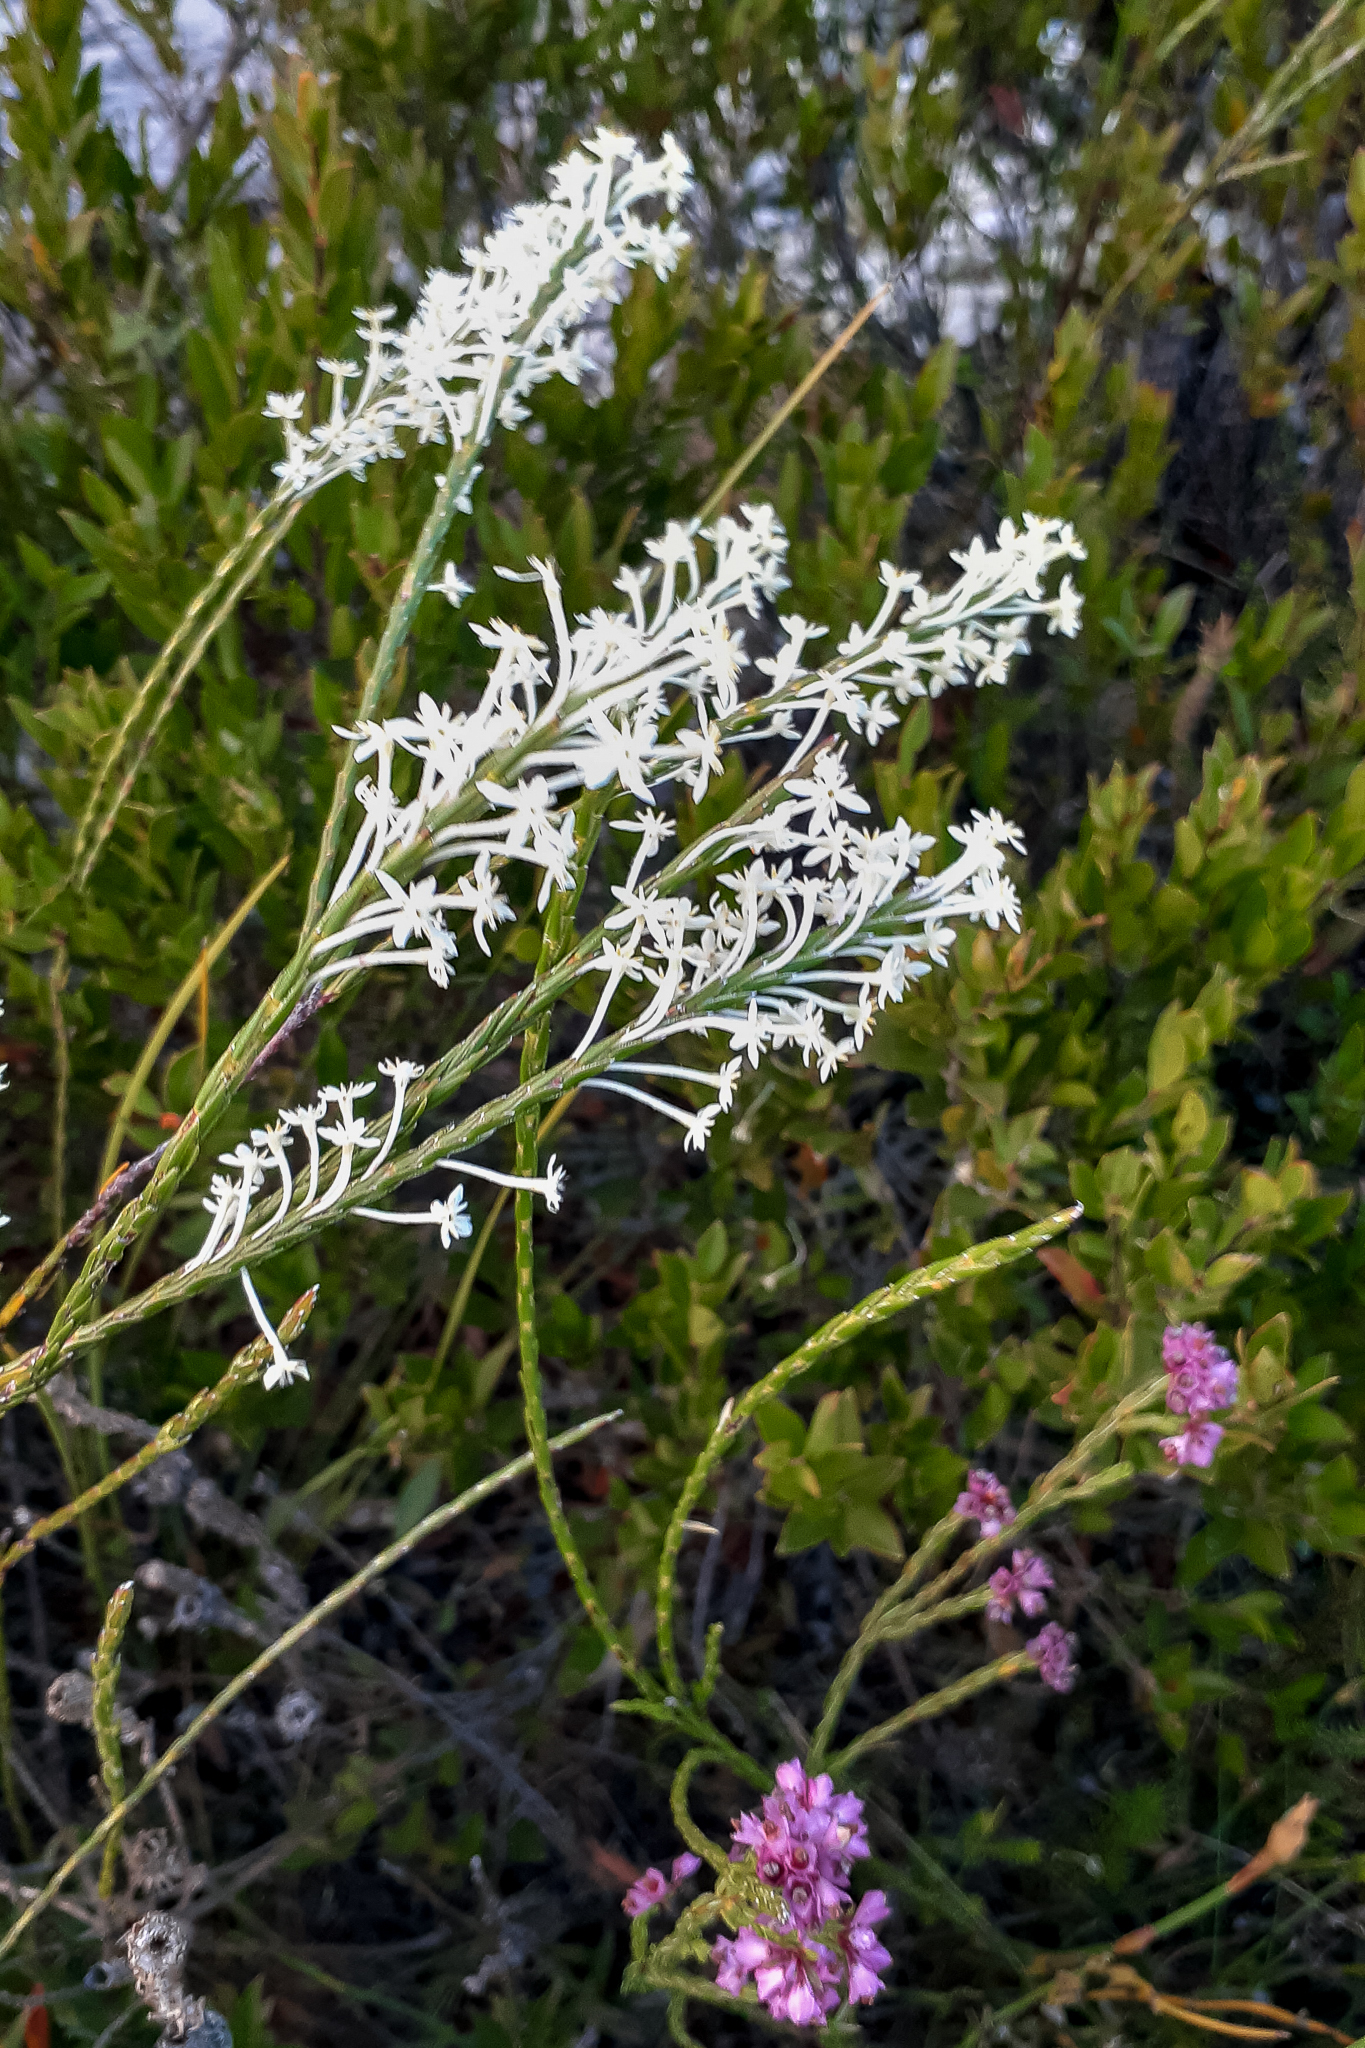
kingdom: Plantae
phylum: Tracheophyta
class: Magnoliopsida
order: Malvales
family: Thymelaeaceae
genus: Struthiola
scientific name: Struthiola ciliata
